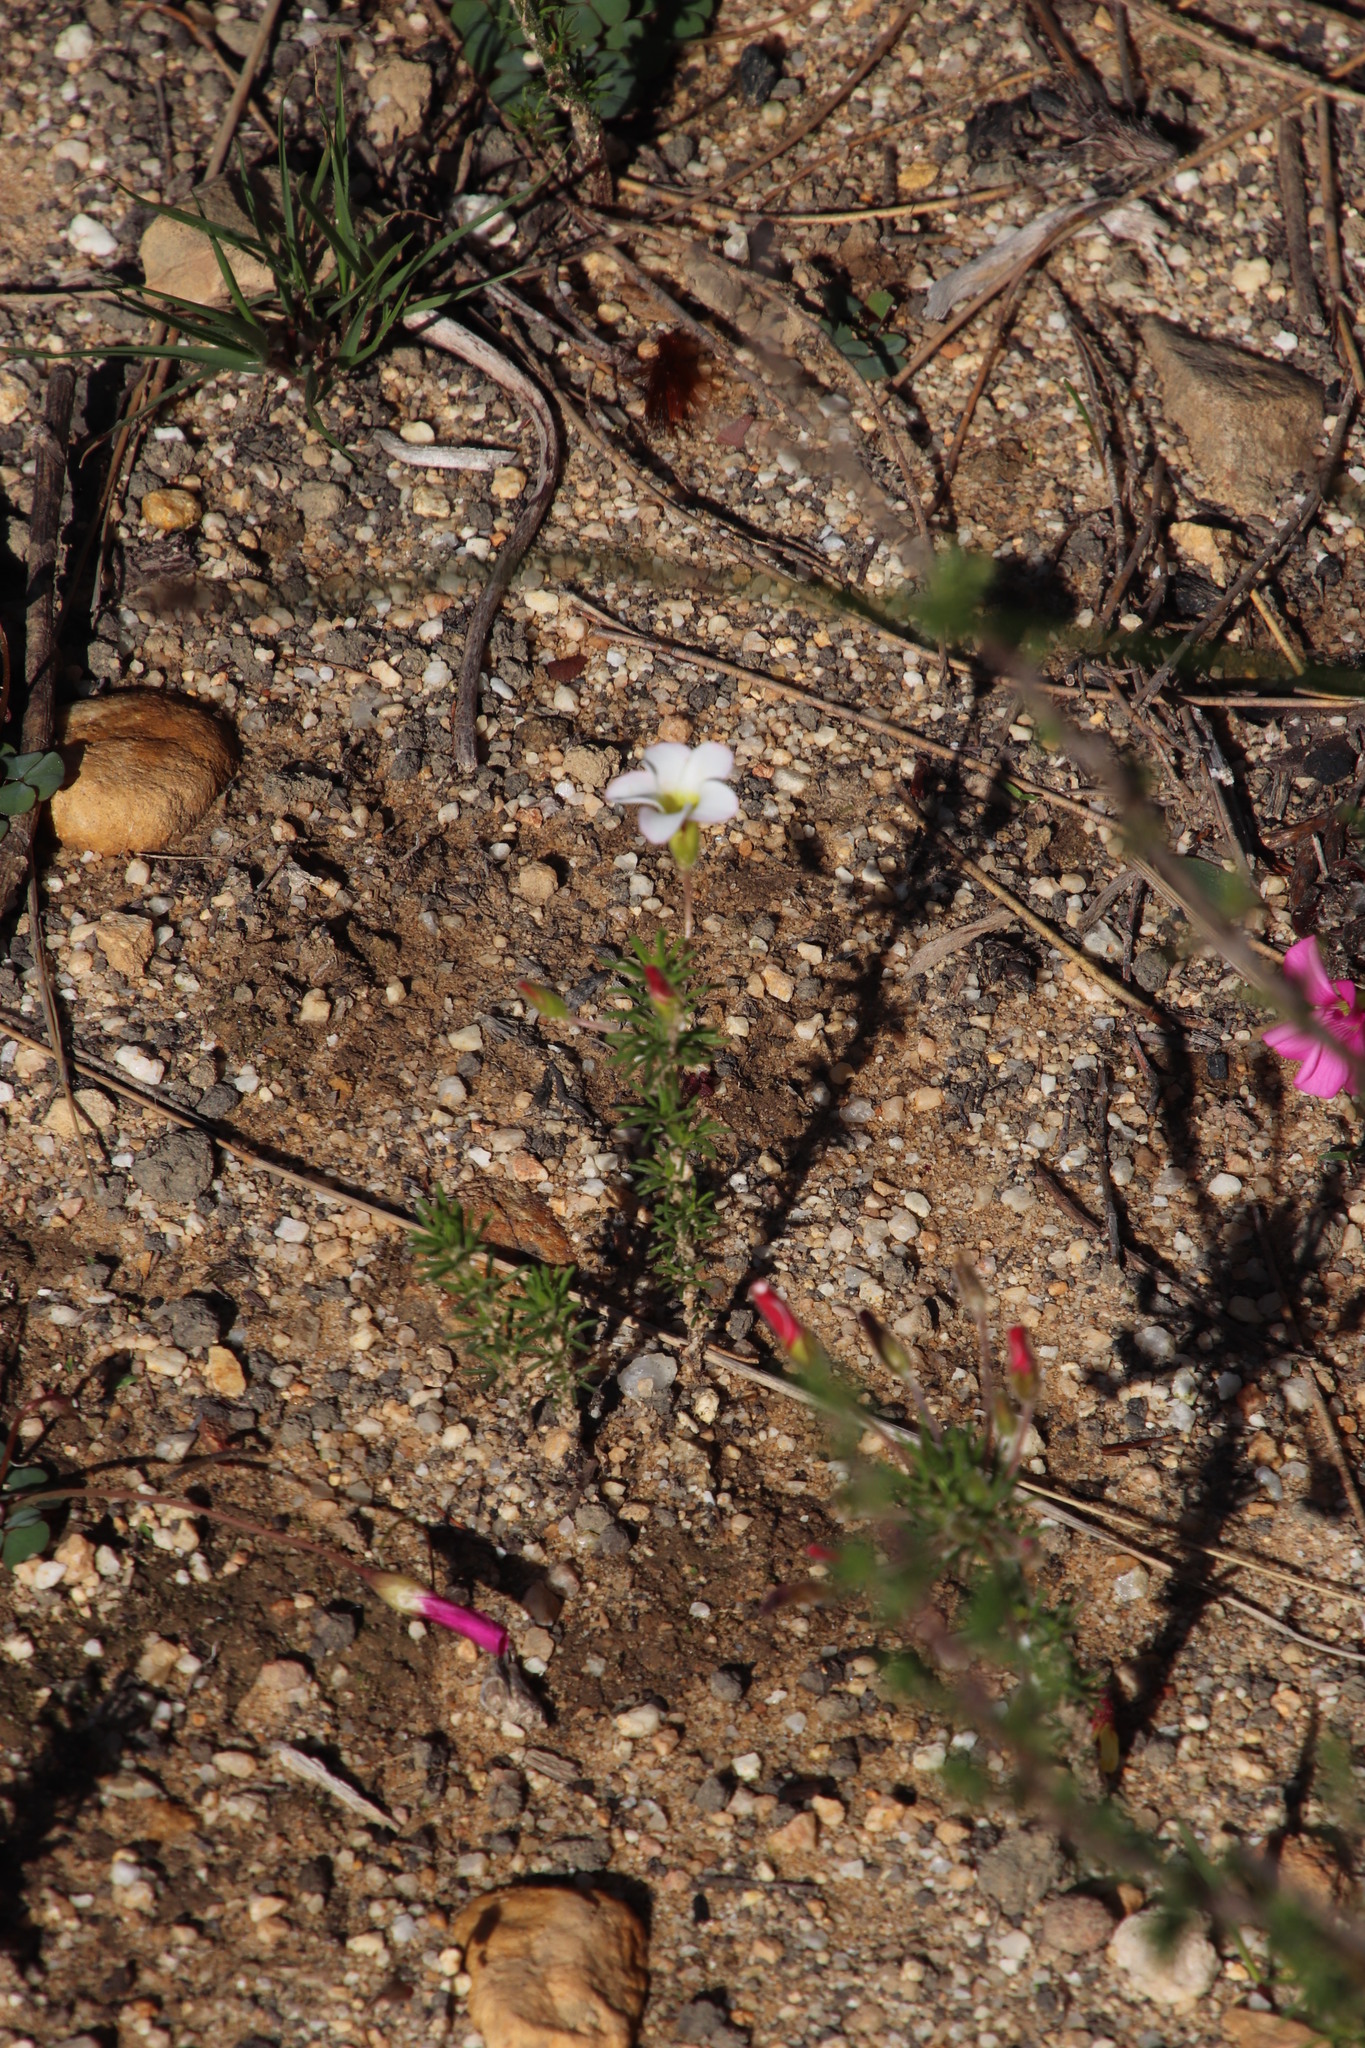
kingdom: Plantae
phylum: Tracheophyta
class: Magnoliopsida
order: Oxalidales
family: Oxalidaceae
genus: Oxalis
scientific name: Oxalis tenuifolia
